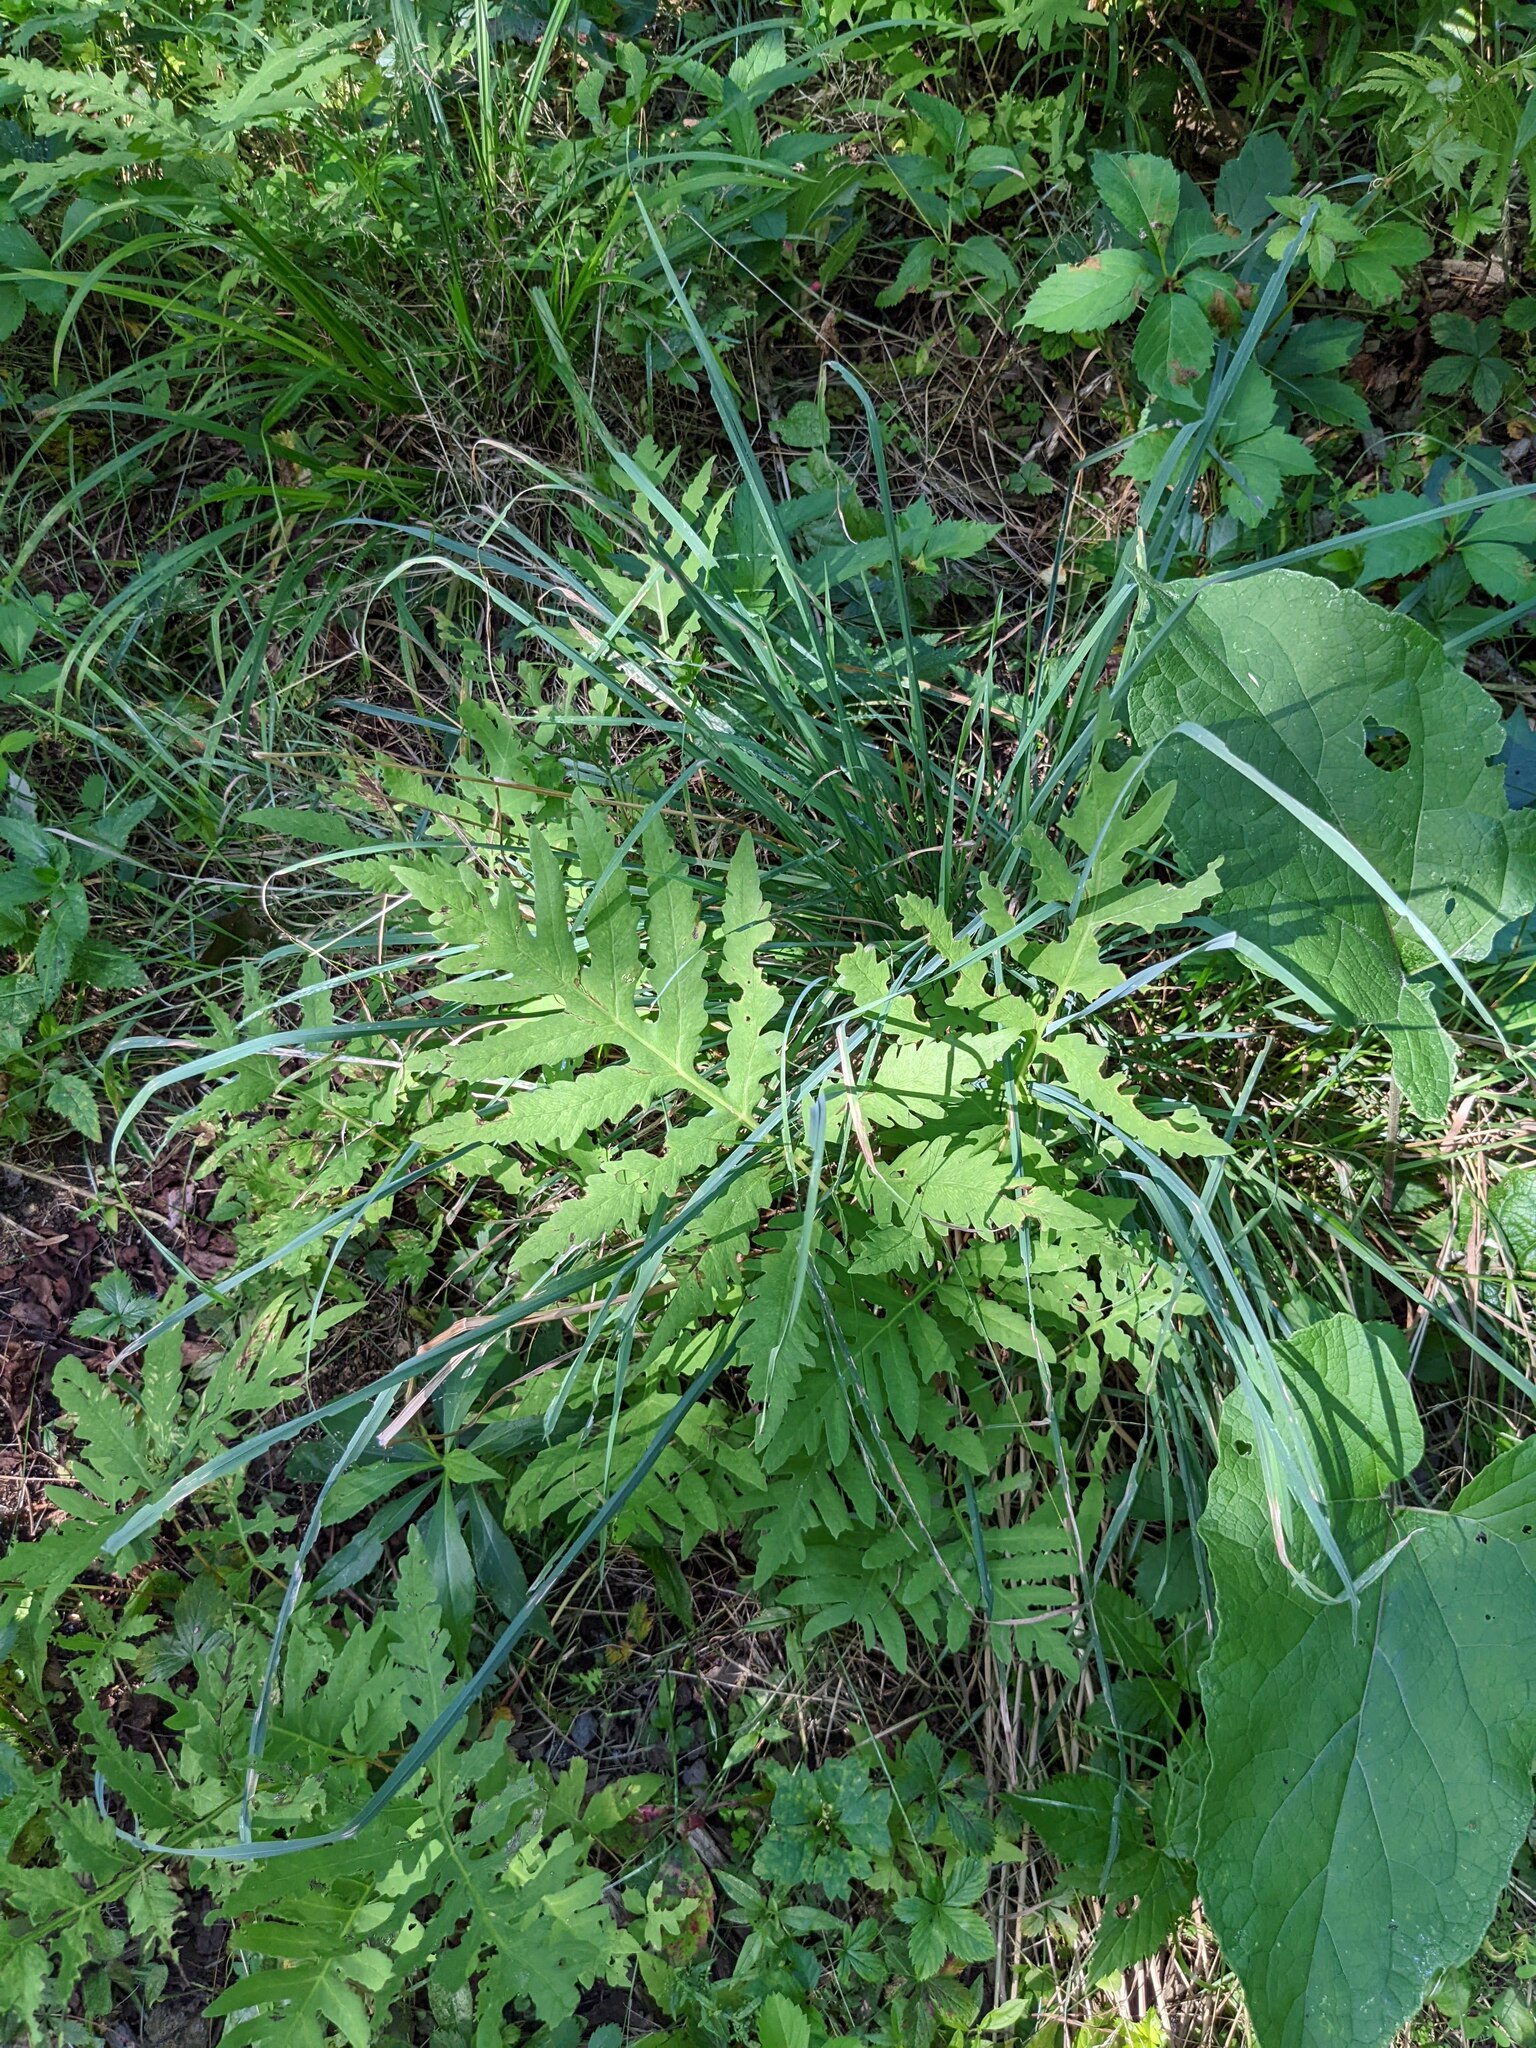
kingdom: Plantae
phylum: Tracheophyta
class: Polypodiopsida
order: Polypodiales
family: Onocleaceae
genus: Onoclea
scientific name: Onoclea sensibilis
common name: Sensitive fern
